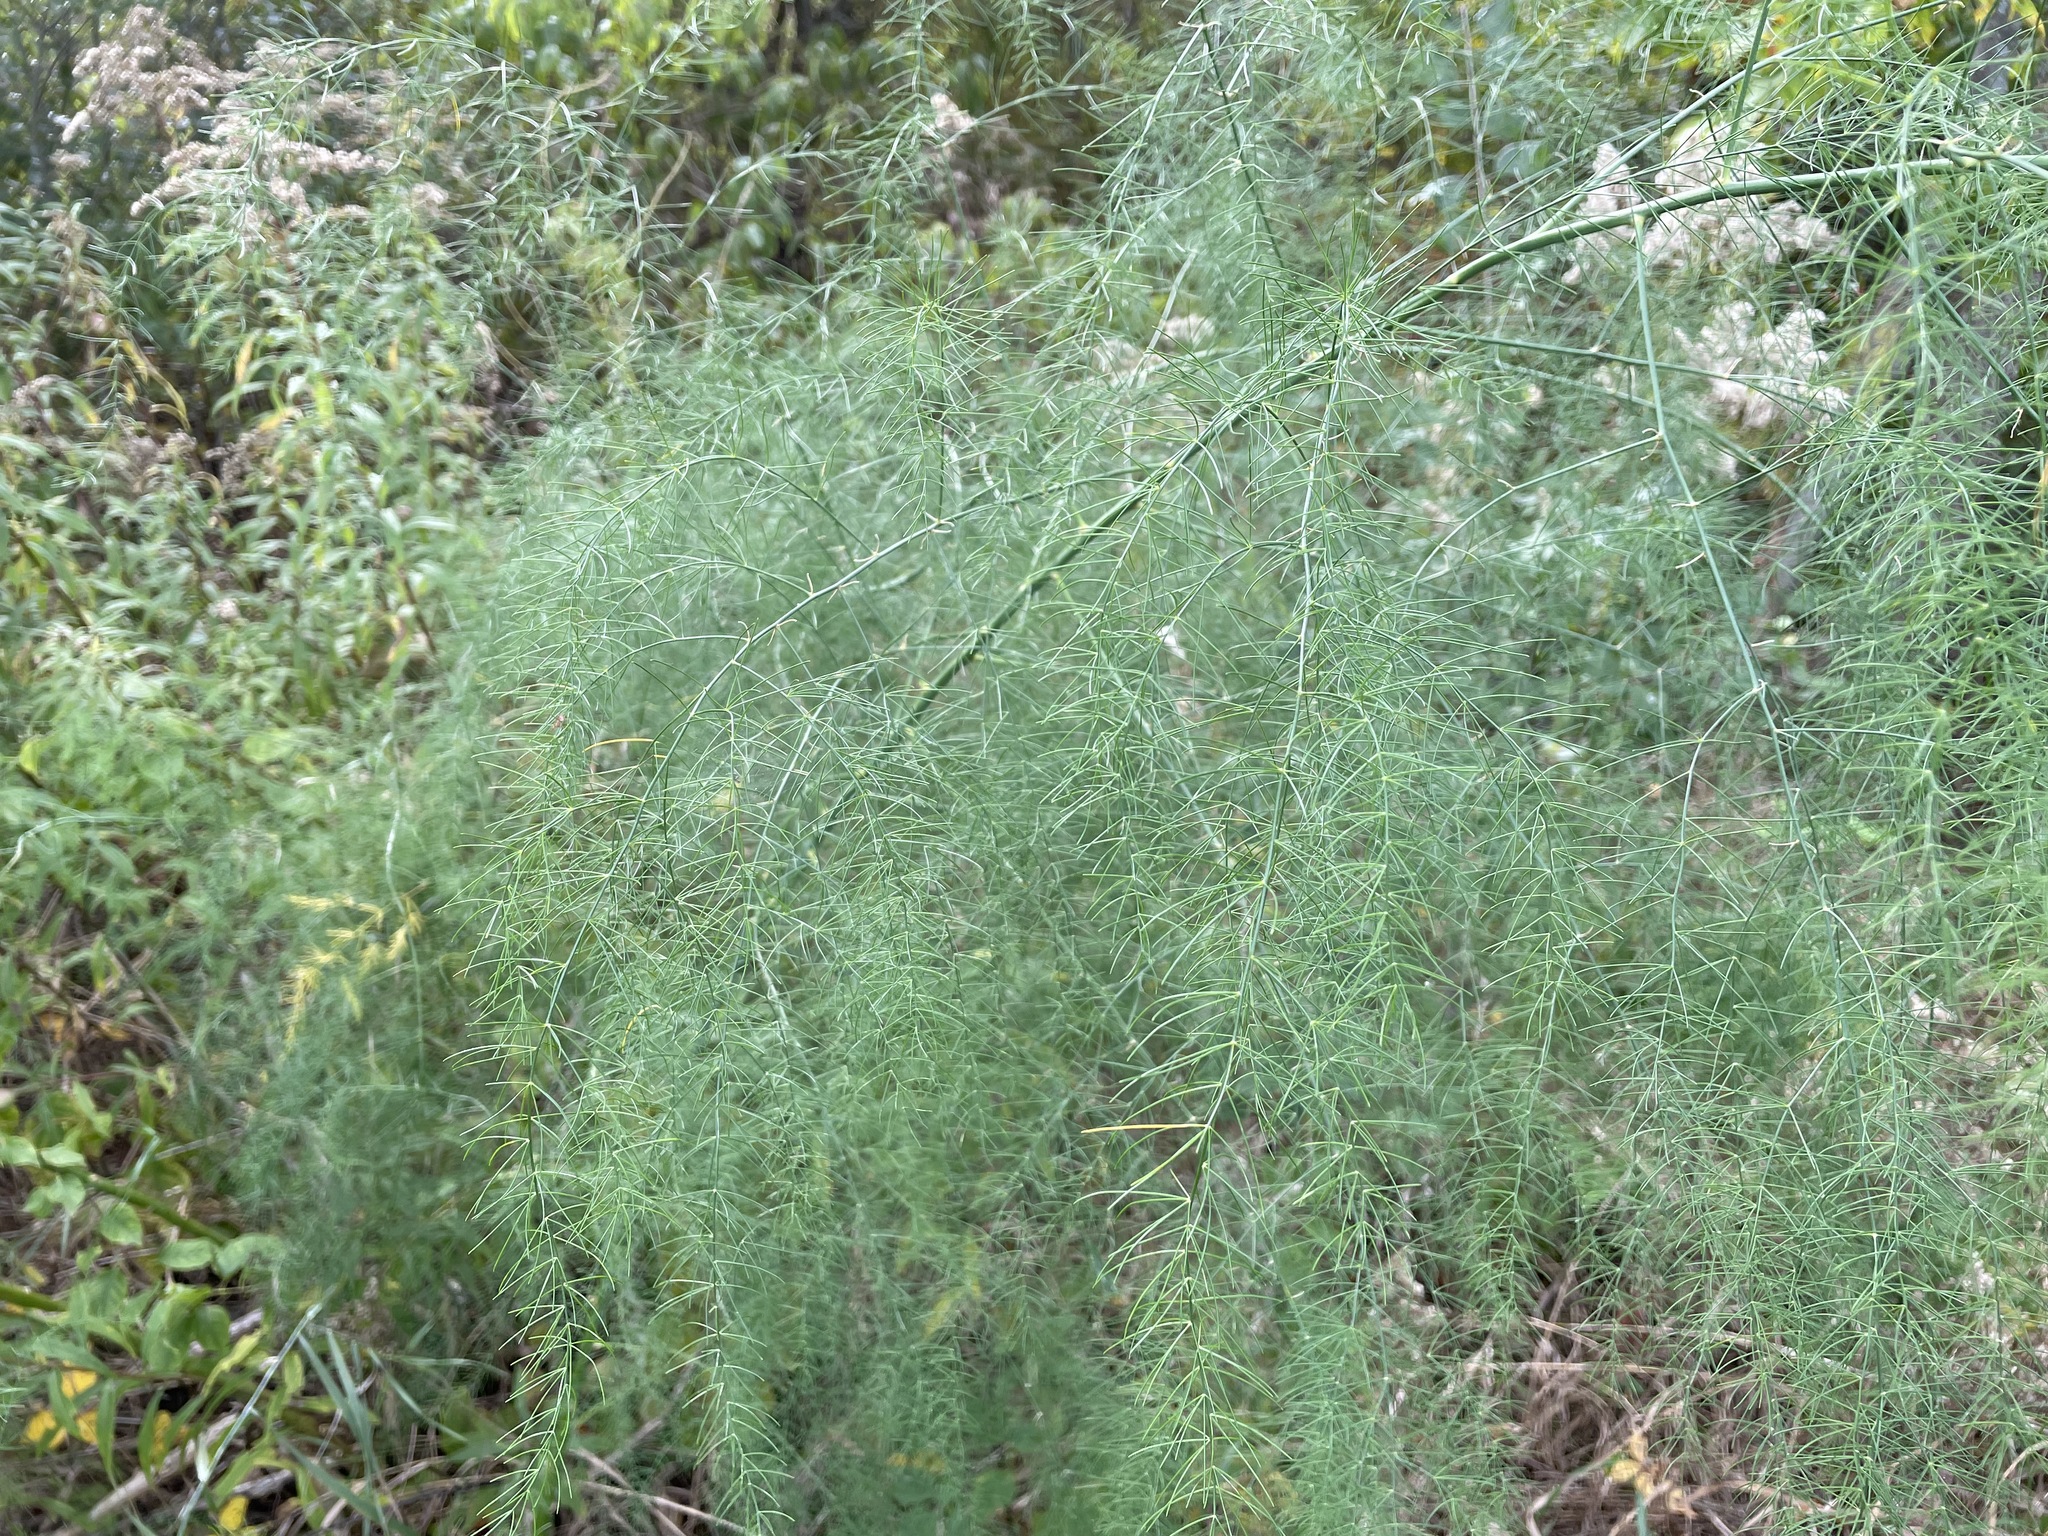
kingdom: Plantae
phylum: Tracheophyta
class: Liliopsida
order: Asparagales
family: Asparagaceae
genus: Asparagus
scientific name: Asparagus officinalis
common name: Garden asparagus
